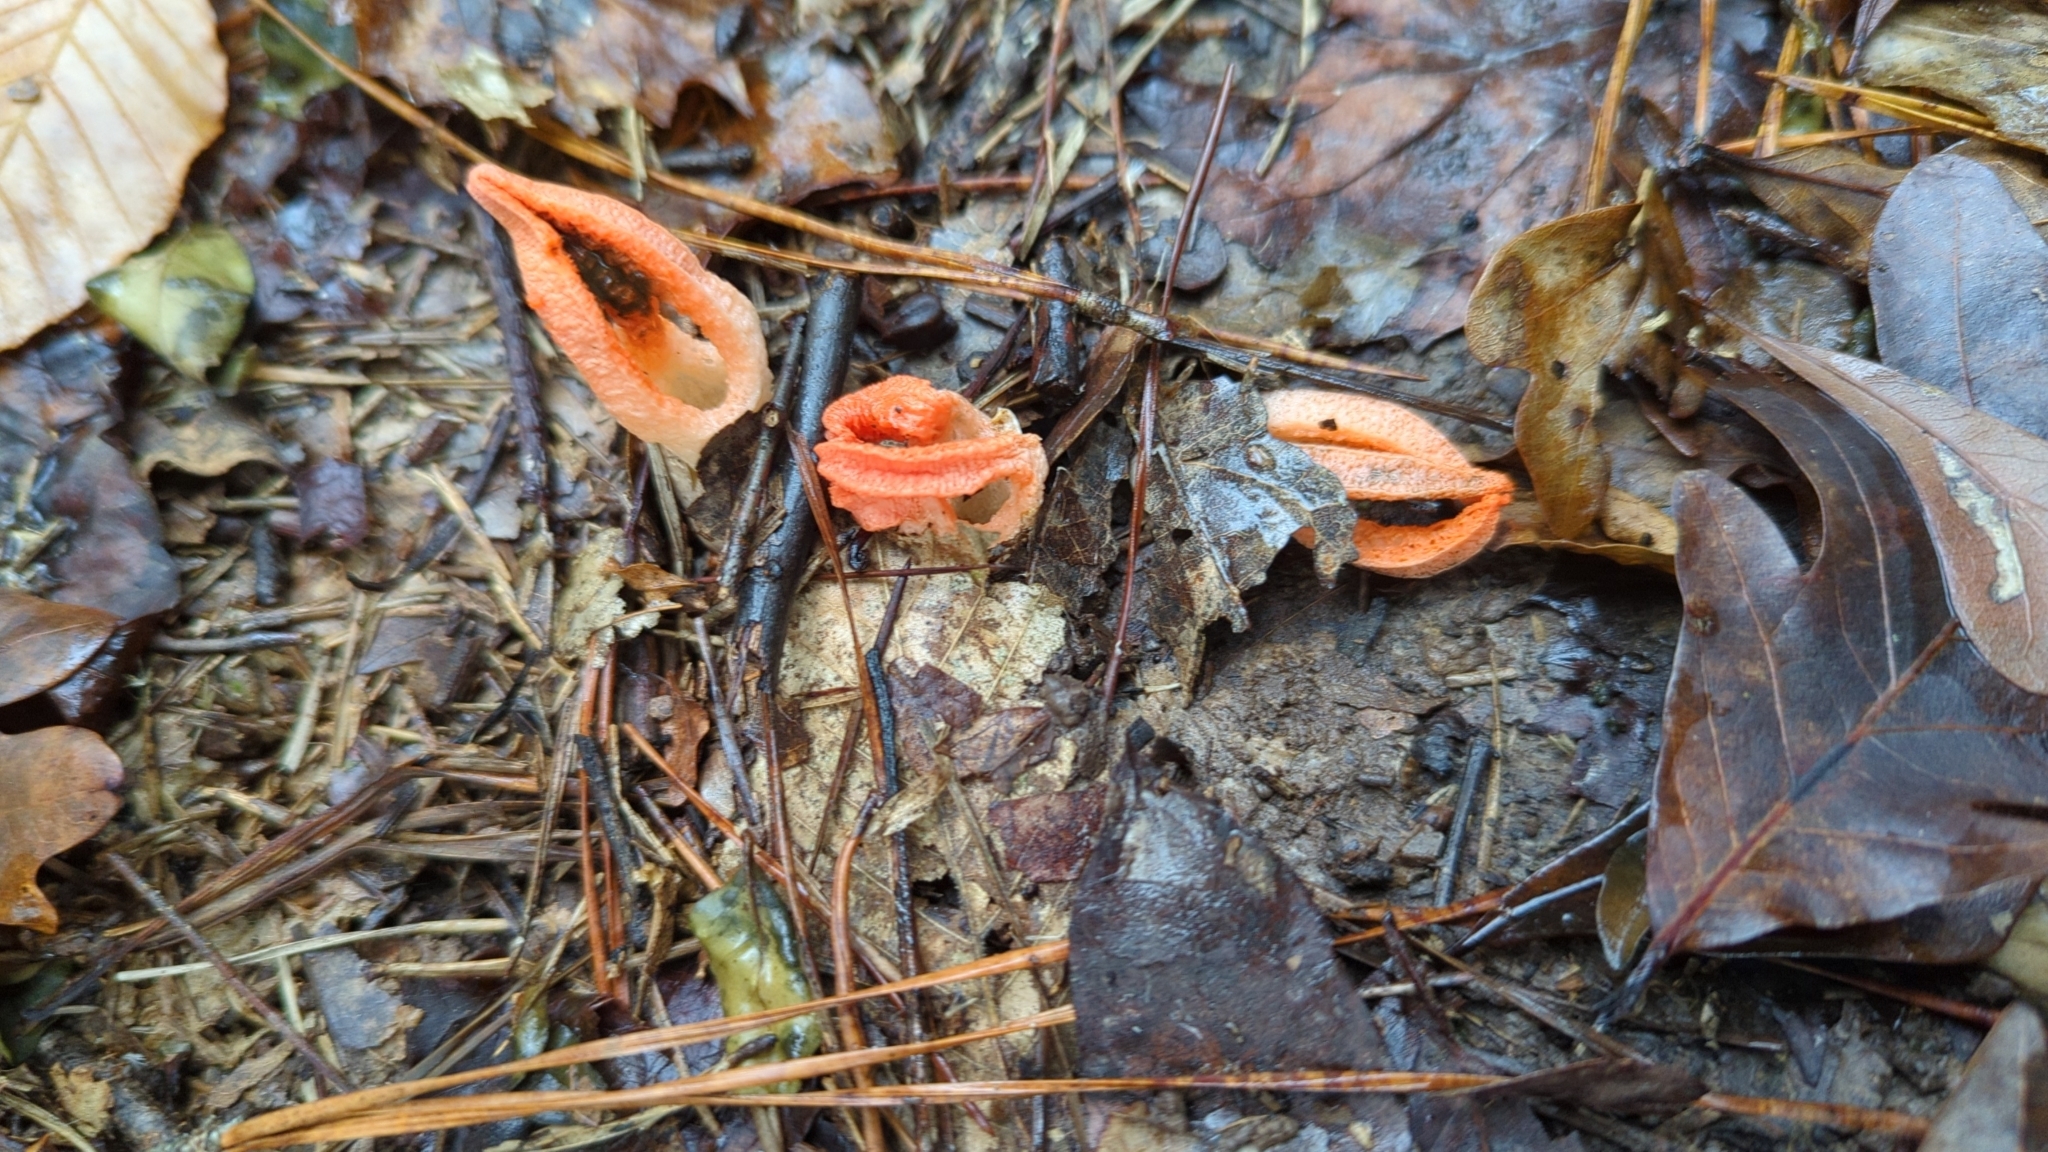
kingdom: Fungi
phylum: Basidiomycota
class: Agaricomycetes
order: Phallales
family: Phallaceae
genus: Pseudocolus
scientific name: Pseudocolus fusiformis
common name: Stinky squid
